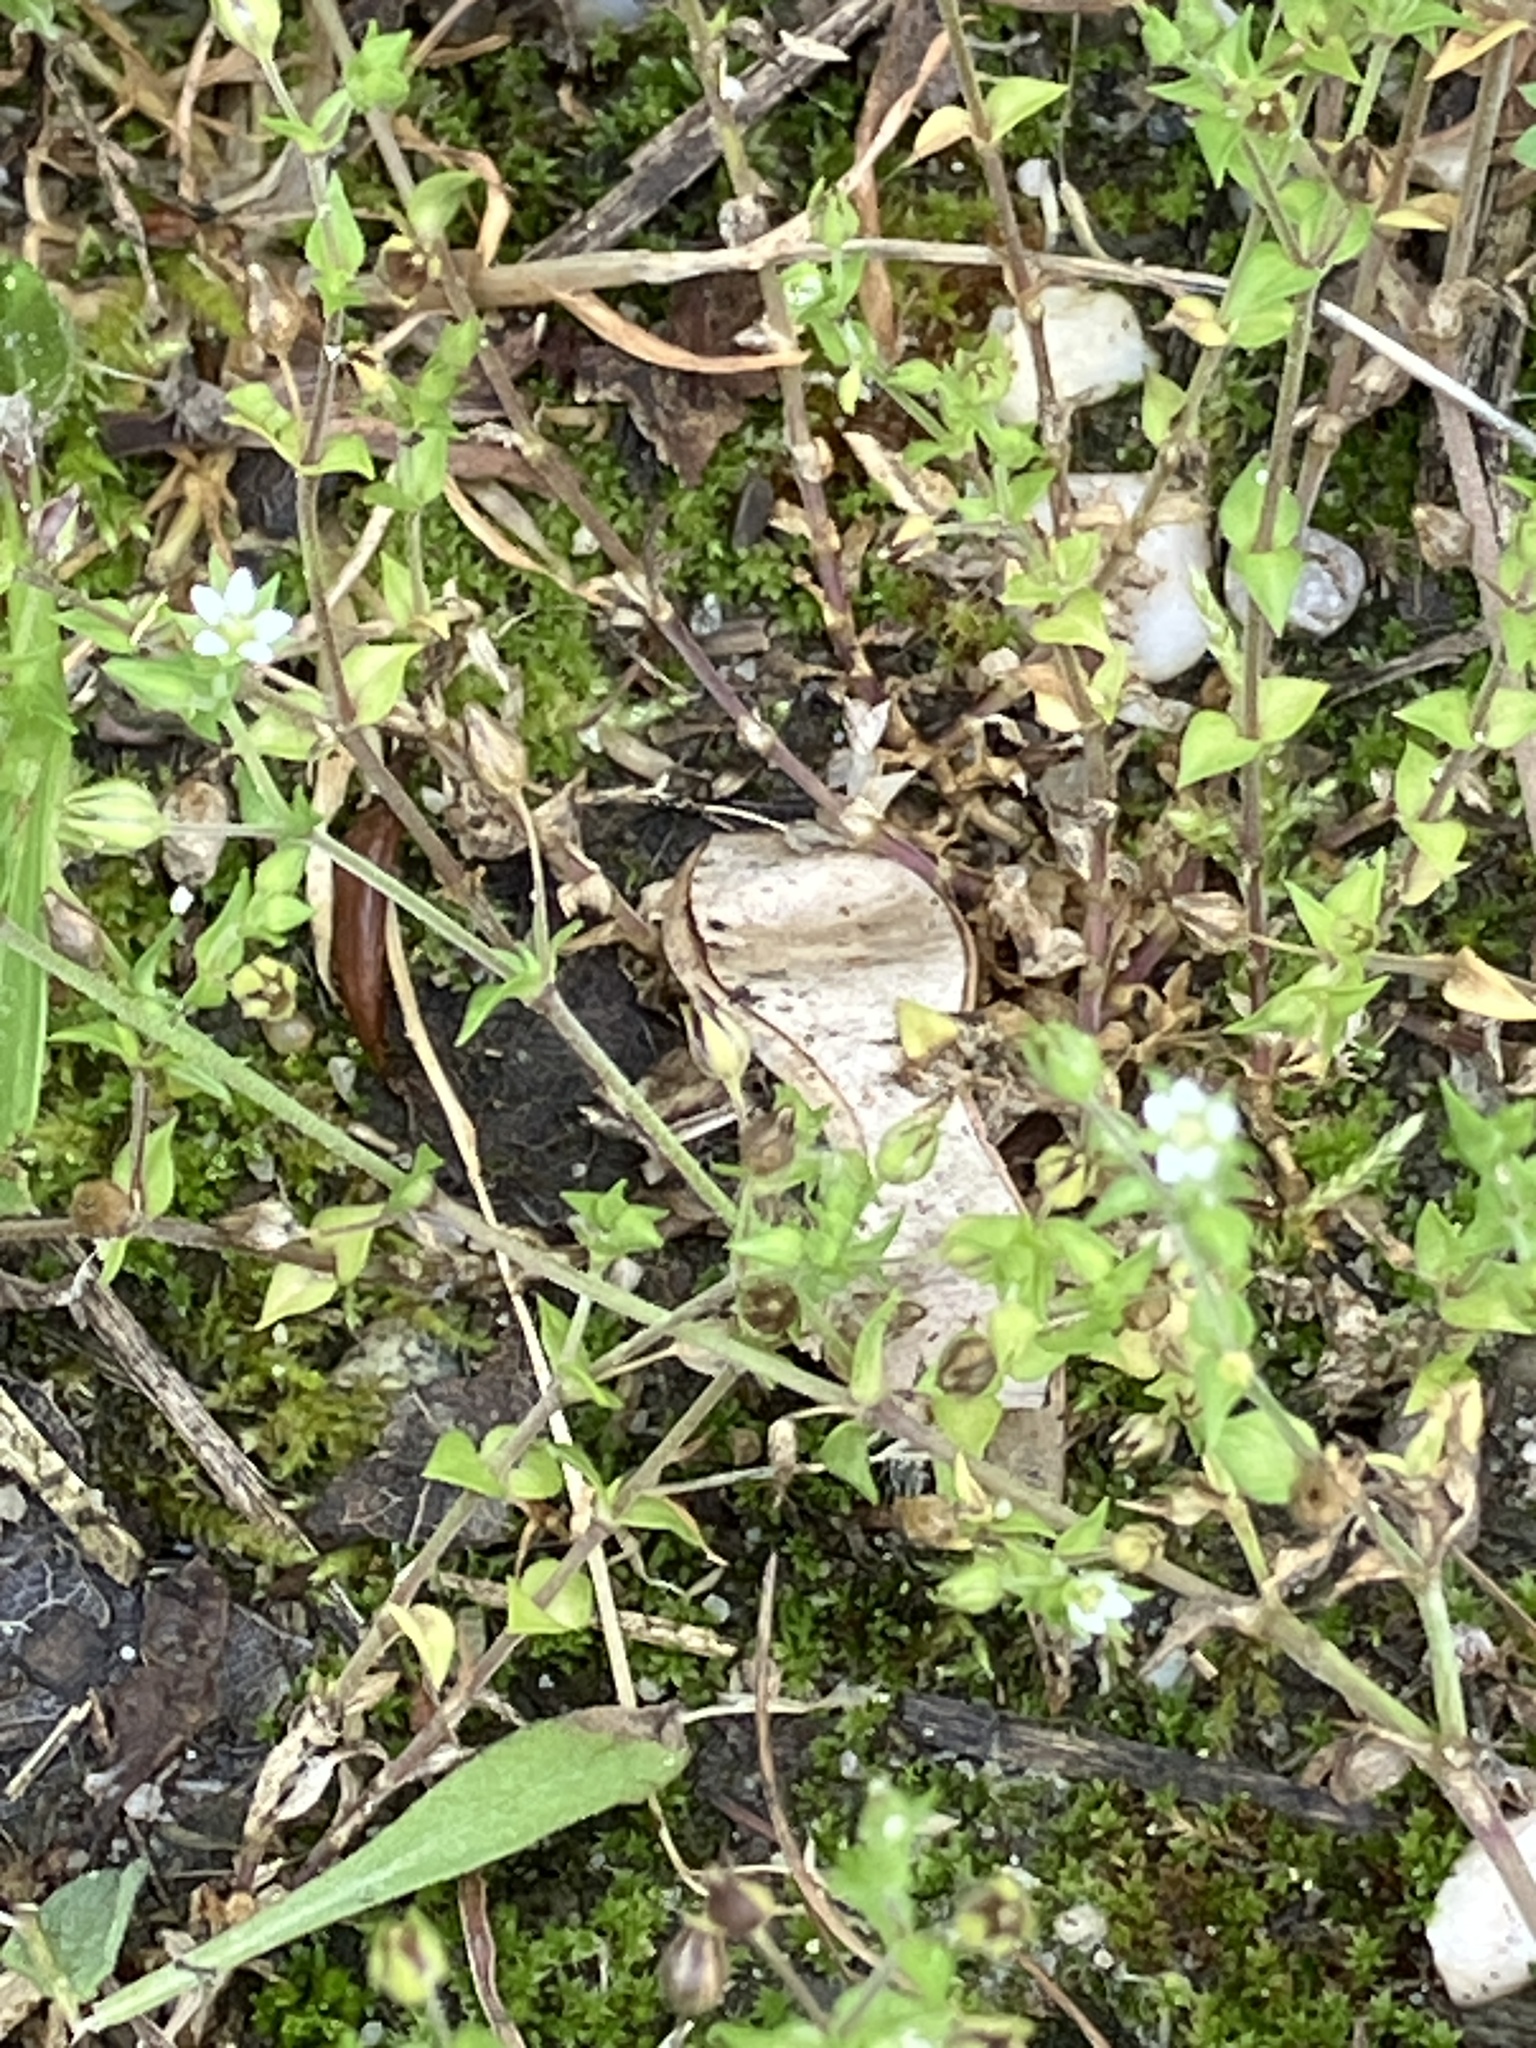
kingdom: Plantae
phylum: Tracheophyta
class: Magnoliopsida
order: Caryophyllales
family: Caryophyllaceae
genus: Arenaria
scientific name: Arenaria serpyllifolia
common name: Thyme-leaved sandwort
